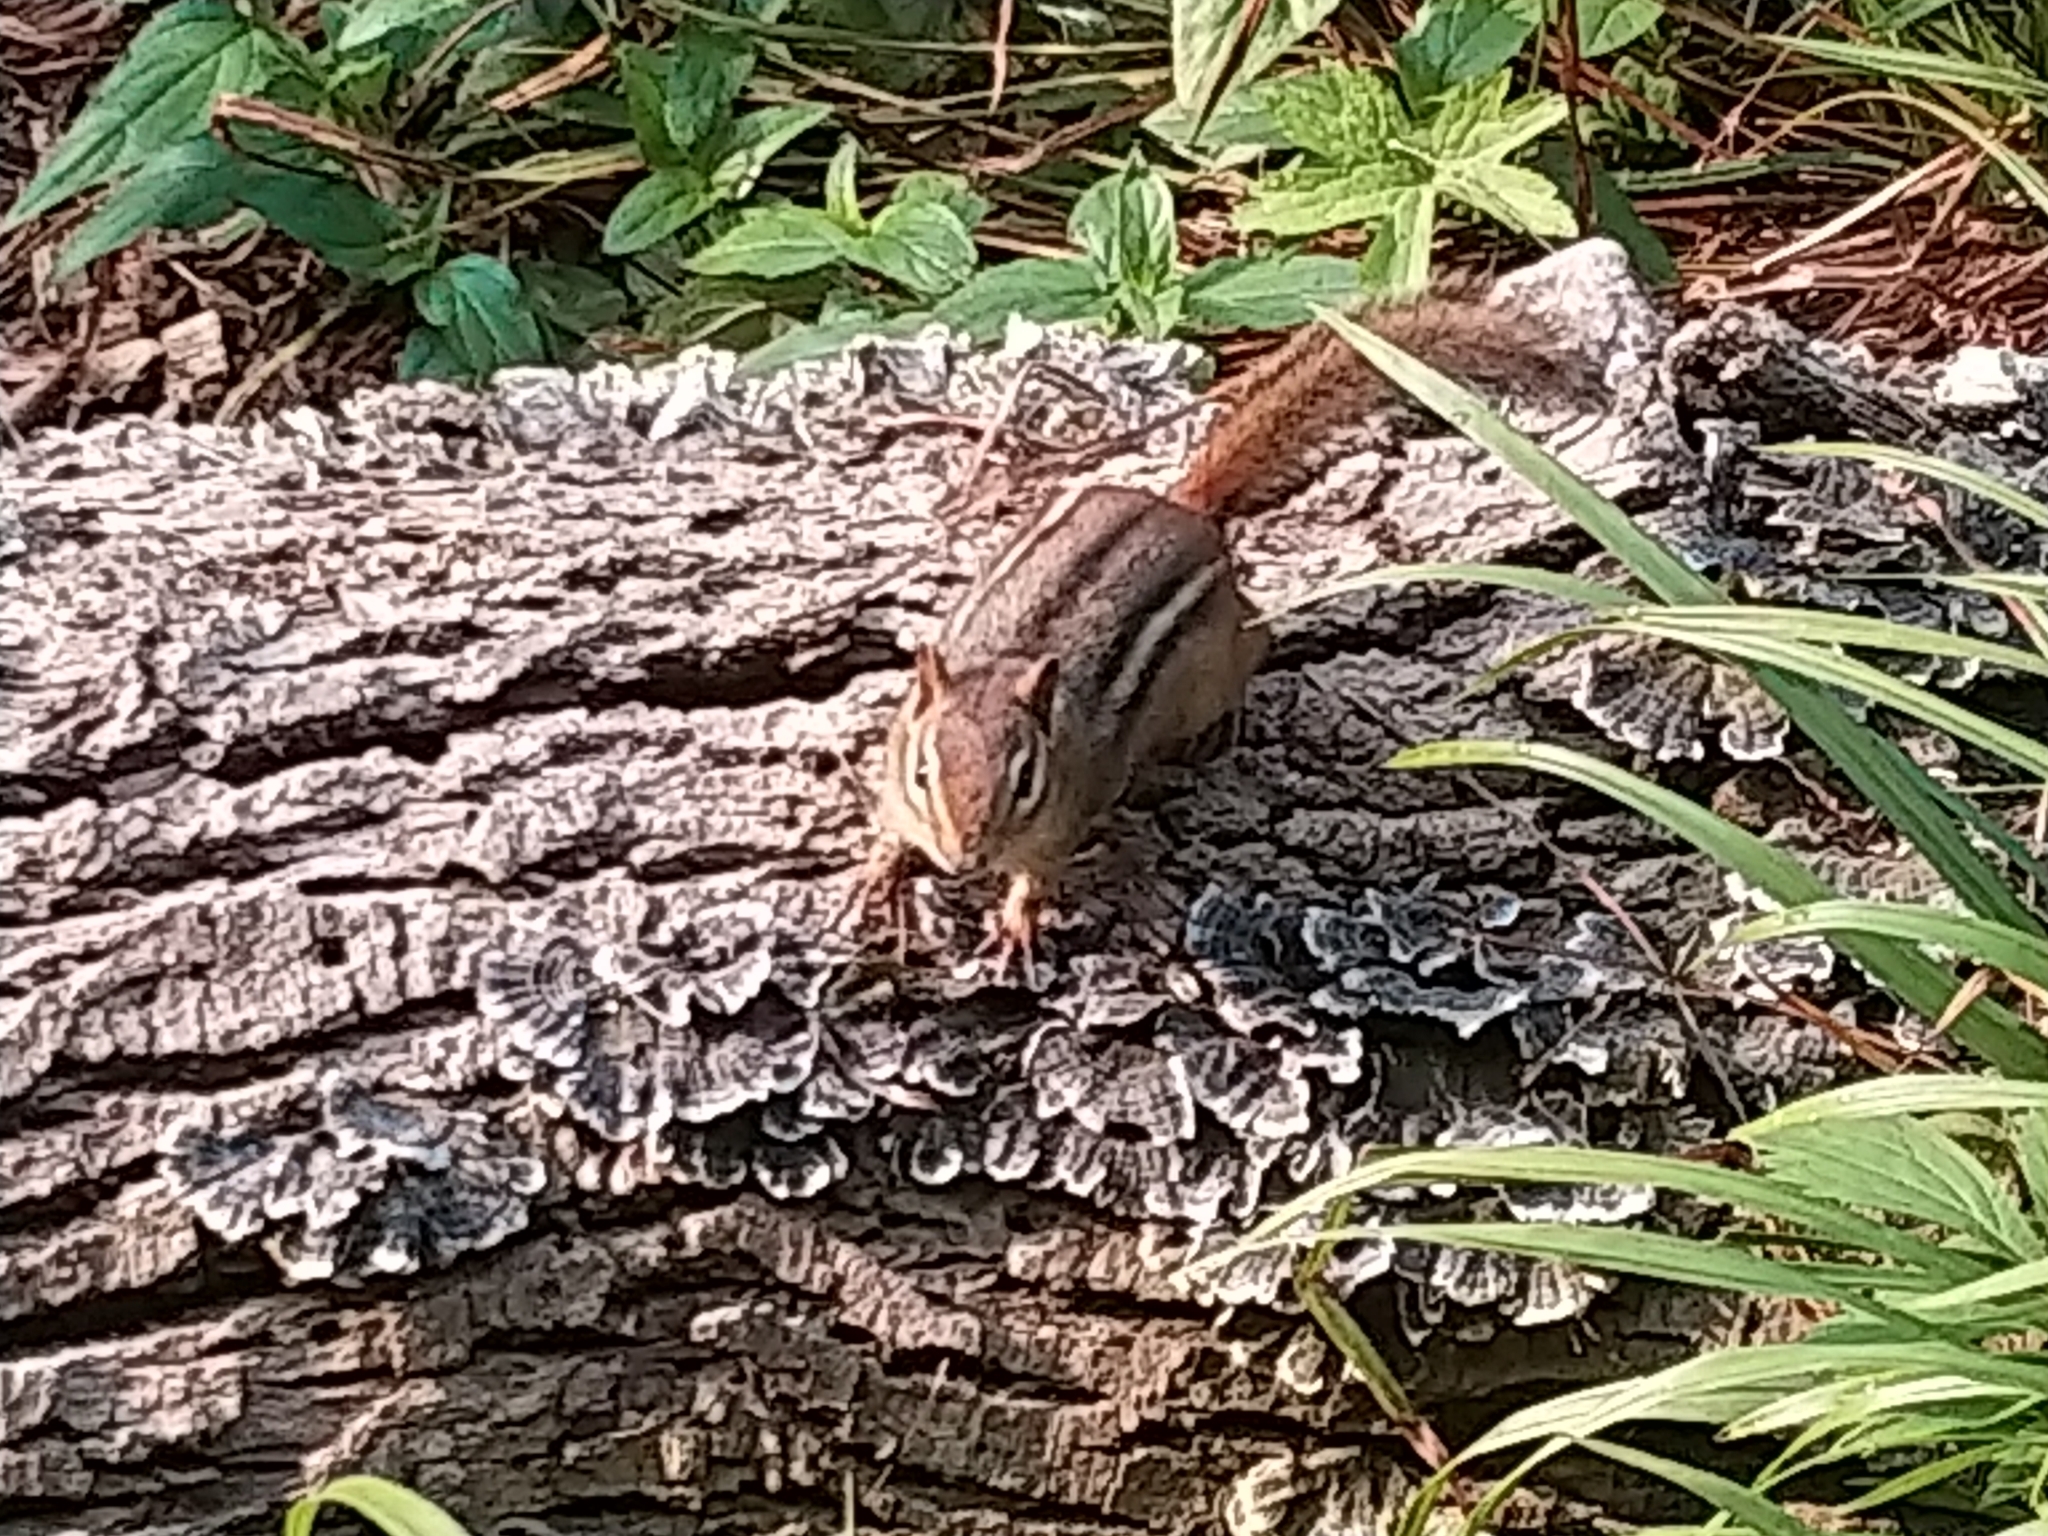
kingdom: Animalia
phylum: Chordata
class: Mammalia
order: Rodentia
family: Sciuridae
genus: Tamias
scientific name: Tamias striatus
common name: Eastern chipmunk
